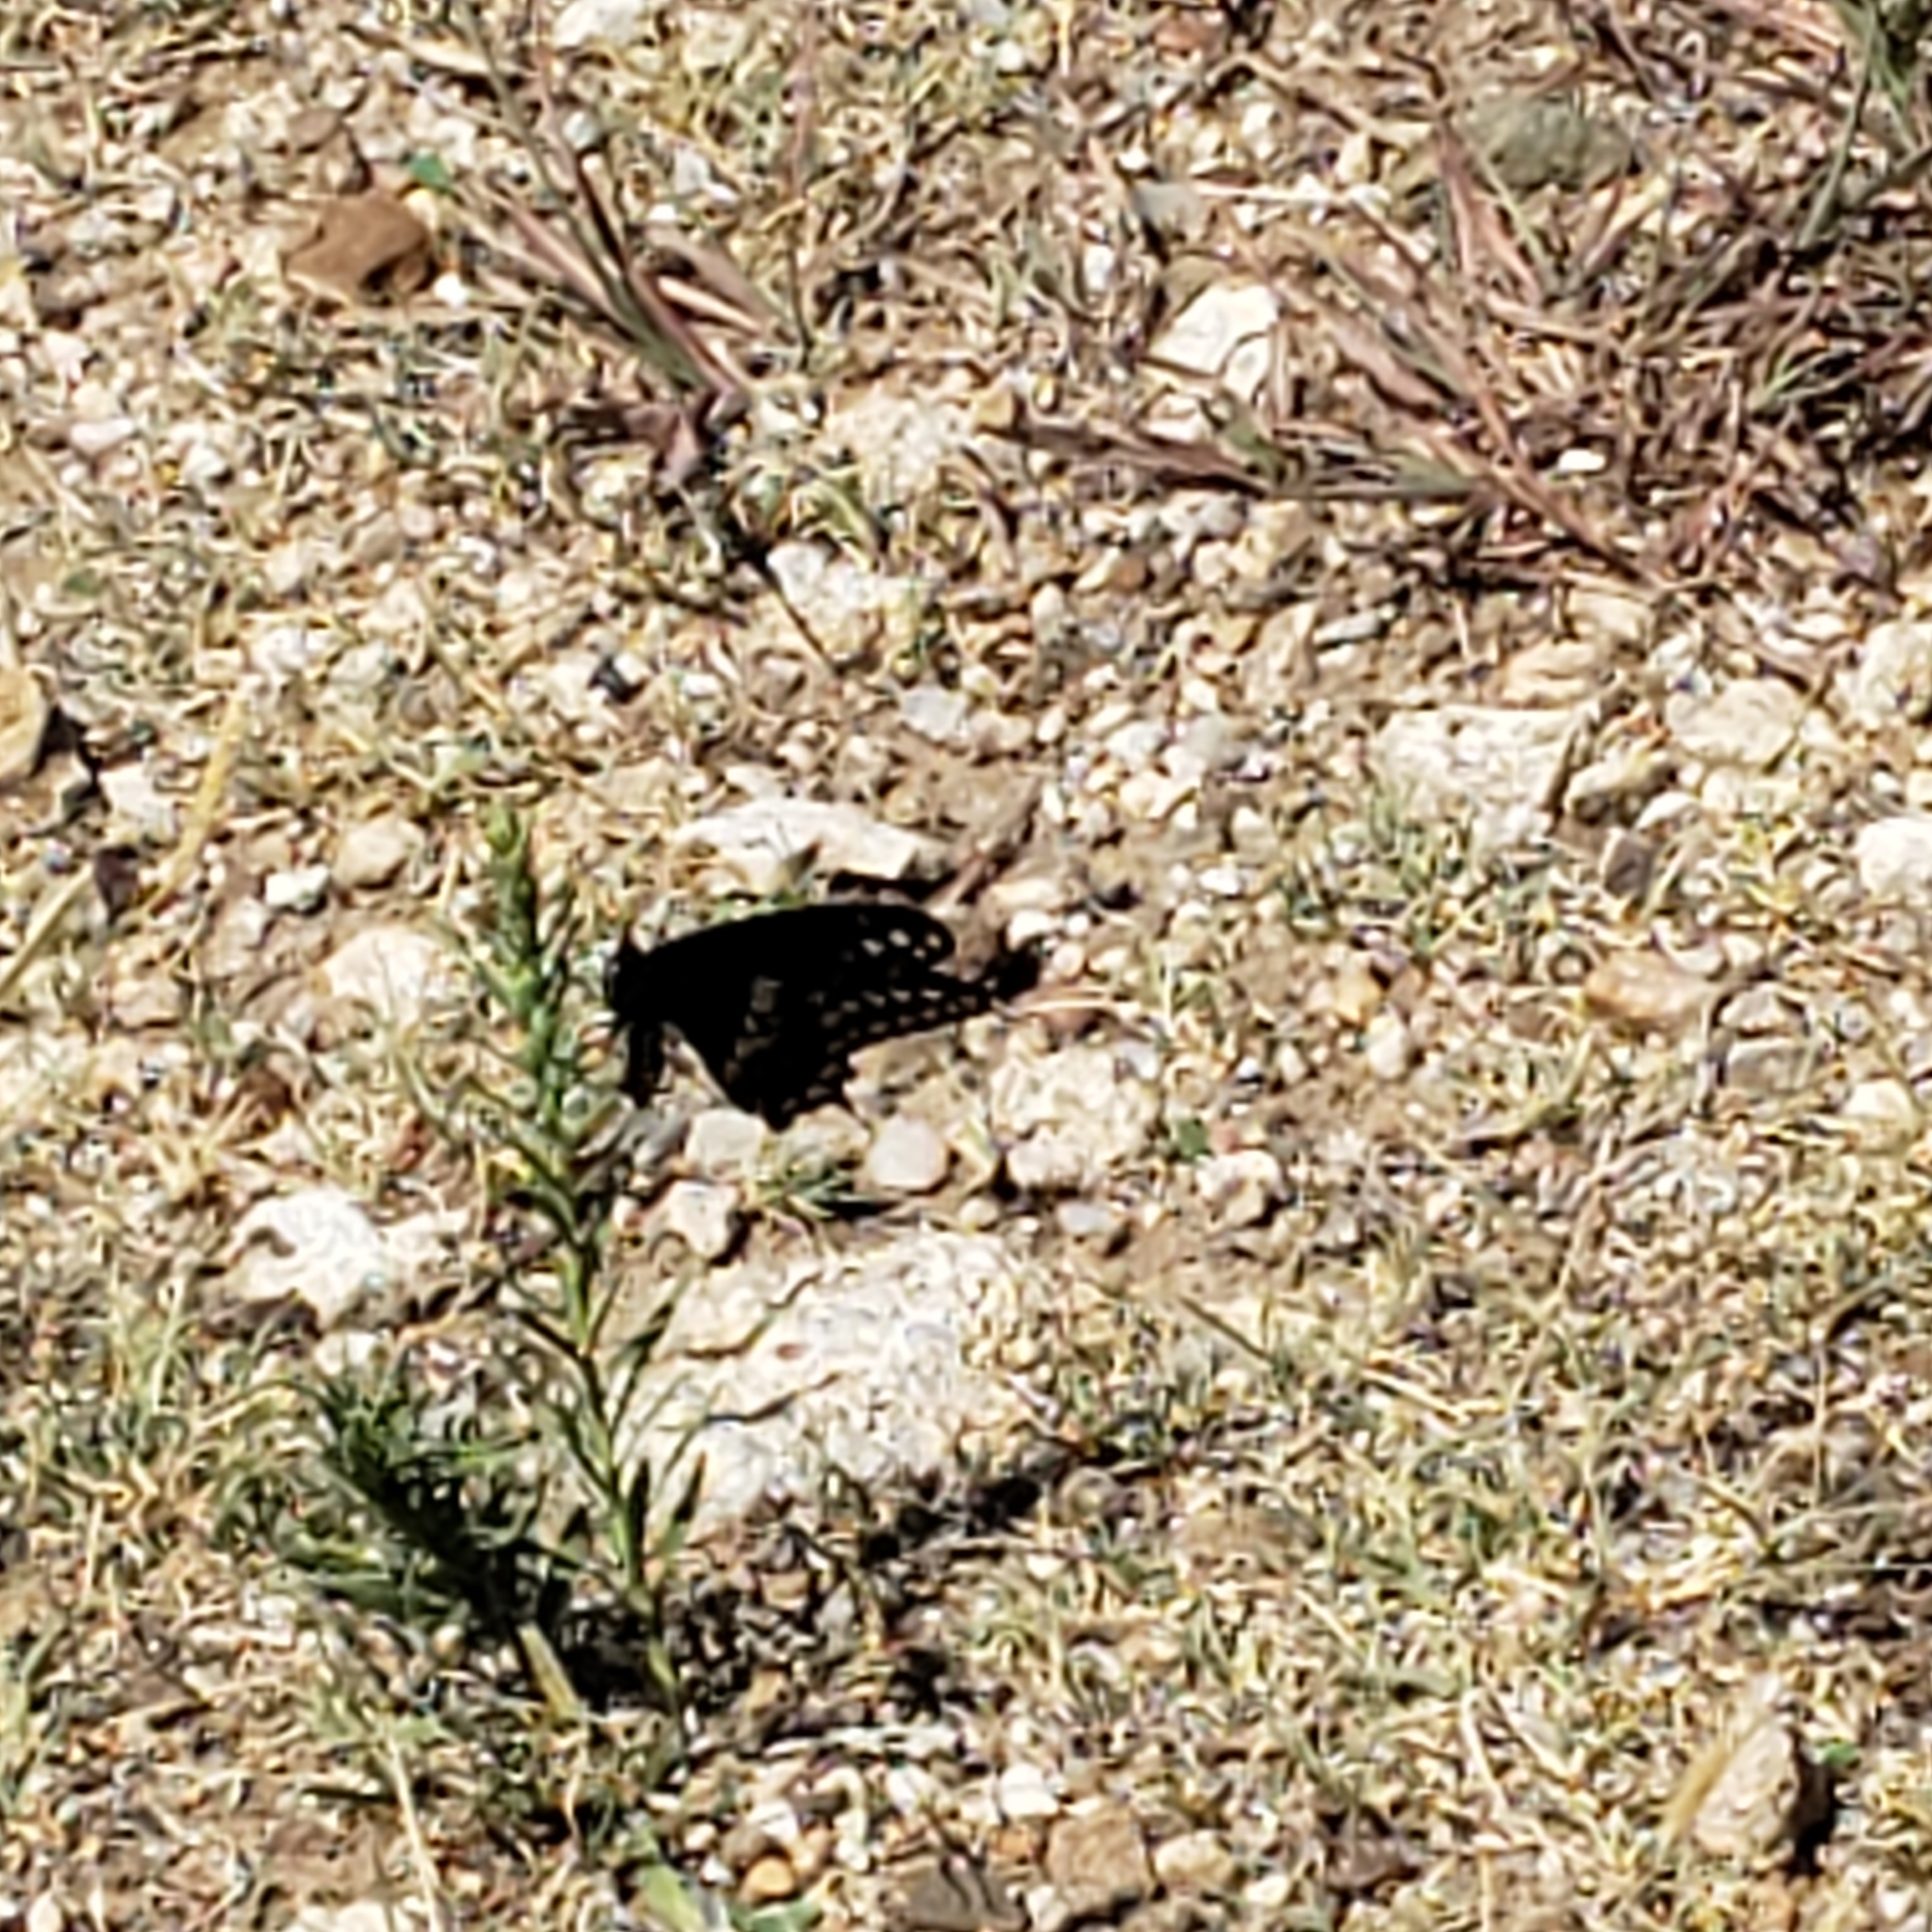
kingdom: Animalia
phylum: Arthropoda
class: Insecta
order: Lepidoptera
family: Papilionidae
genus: Papilio
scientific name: Papilio polyxenes
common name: Black swallowtail
